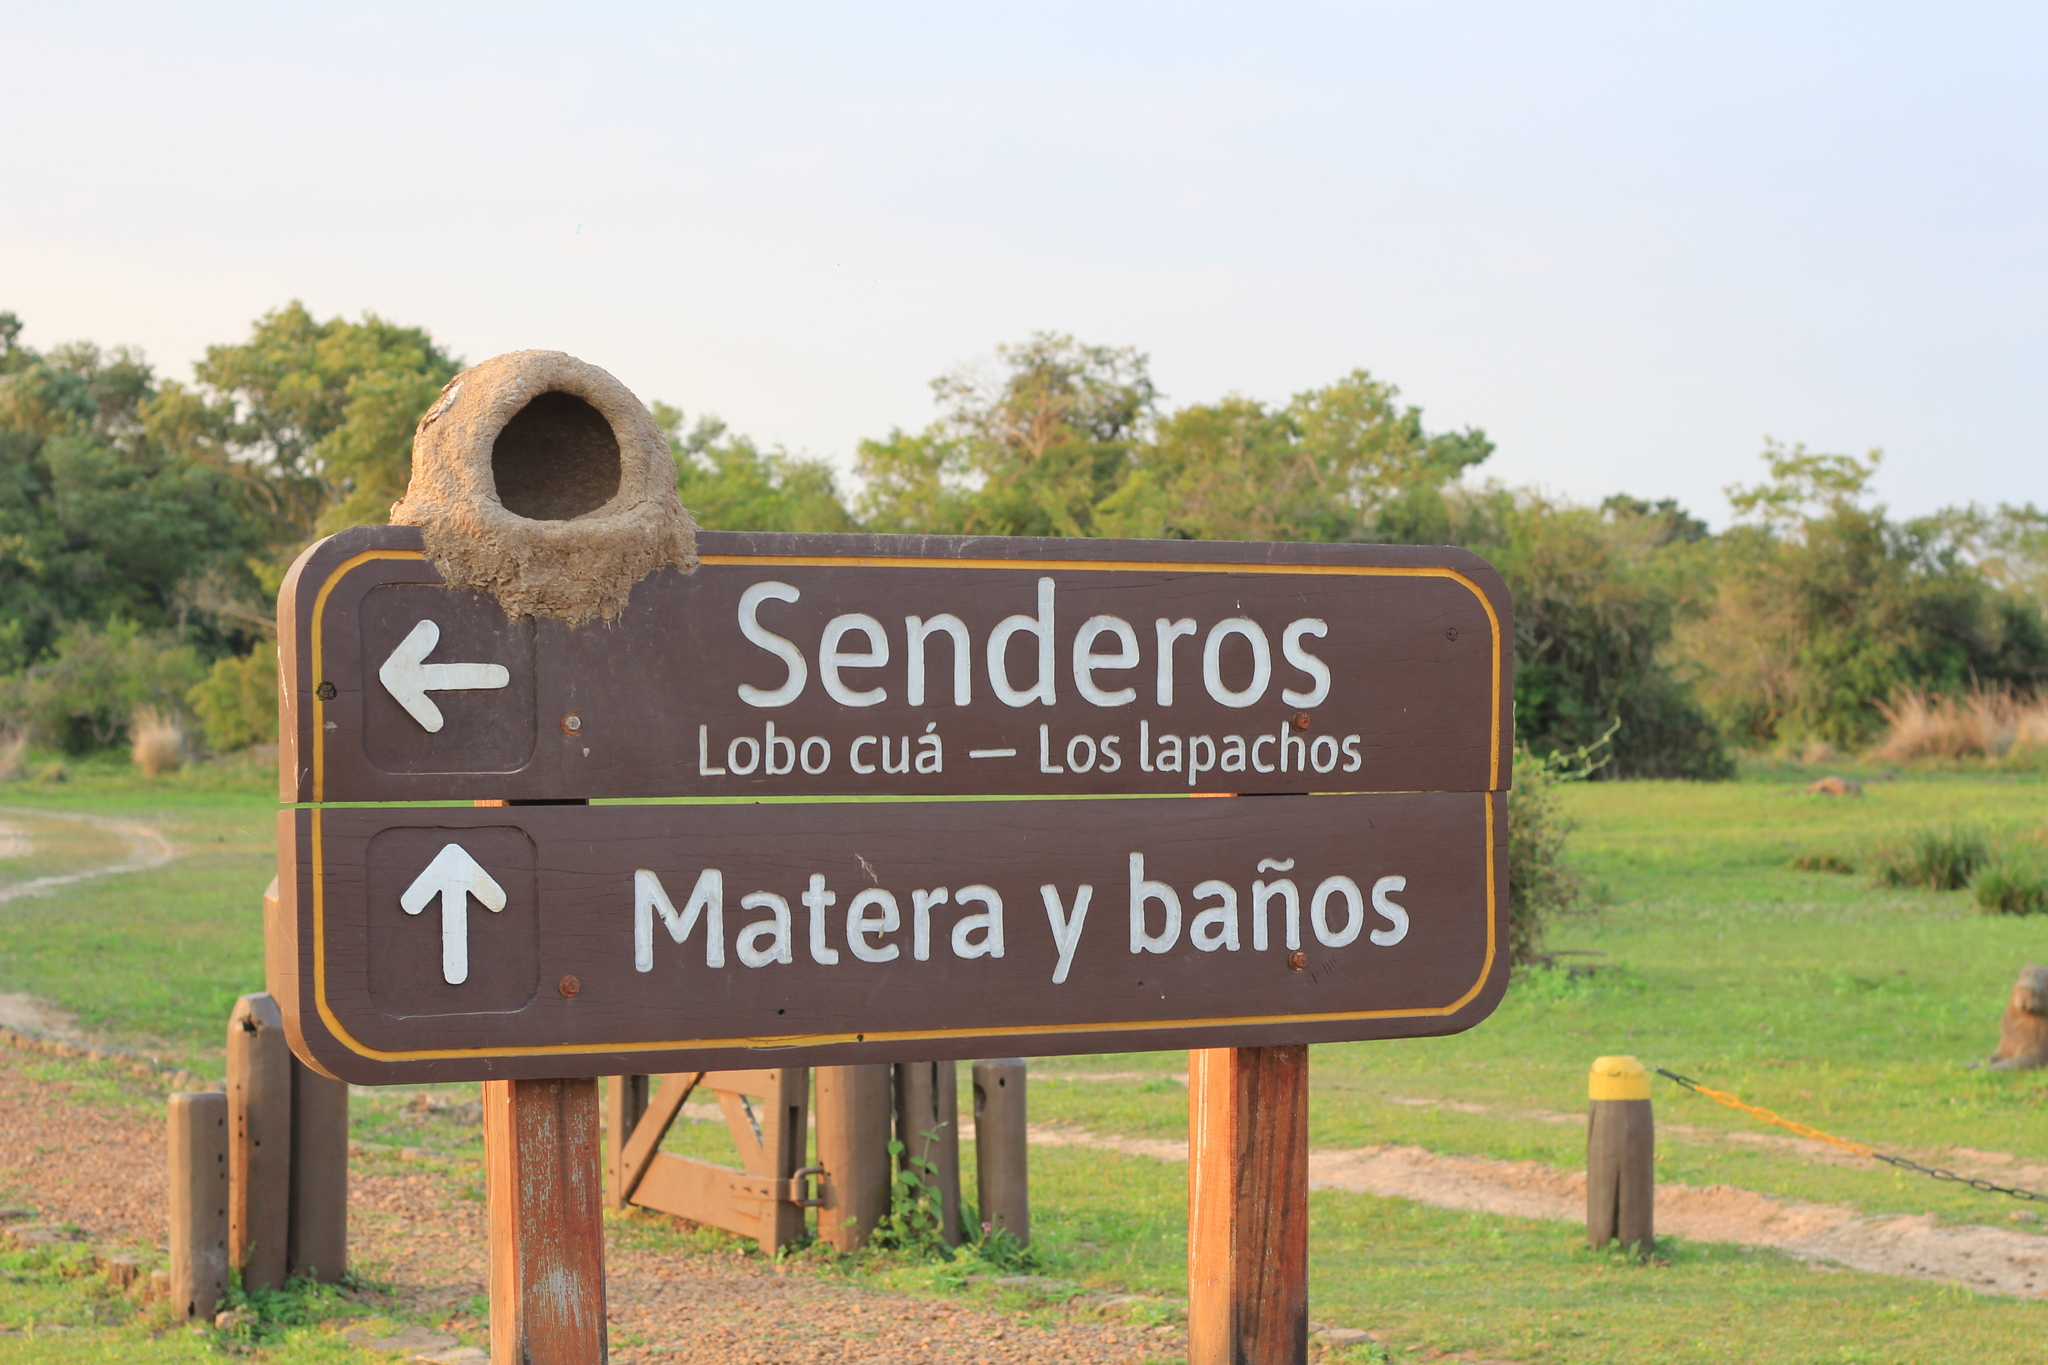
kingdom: Animalia
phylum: Chordata
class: Aves
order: Passeriformes
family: Furnariidae
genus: Furnarius
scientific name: Furnarius rufus
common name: Rufous hornero
